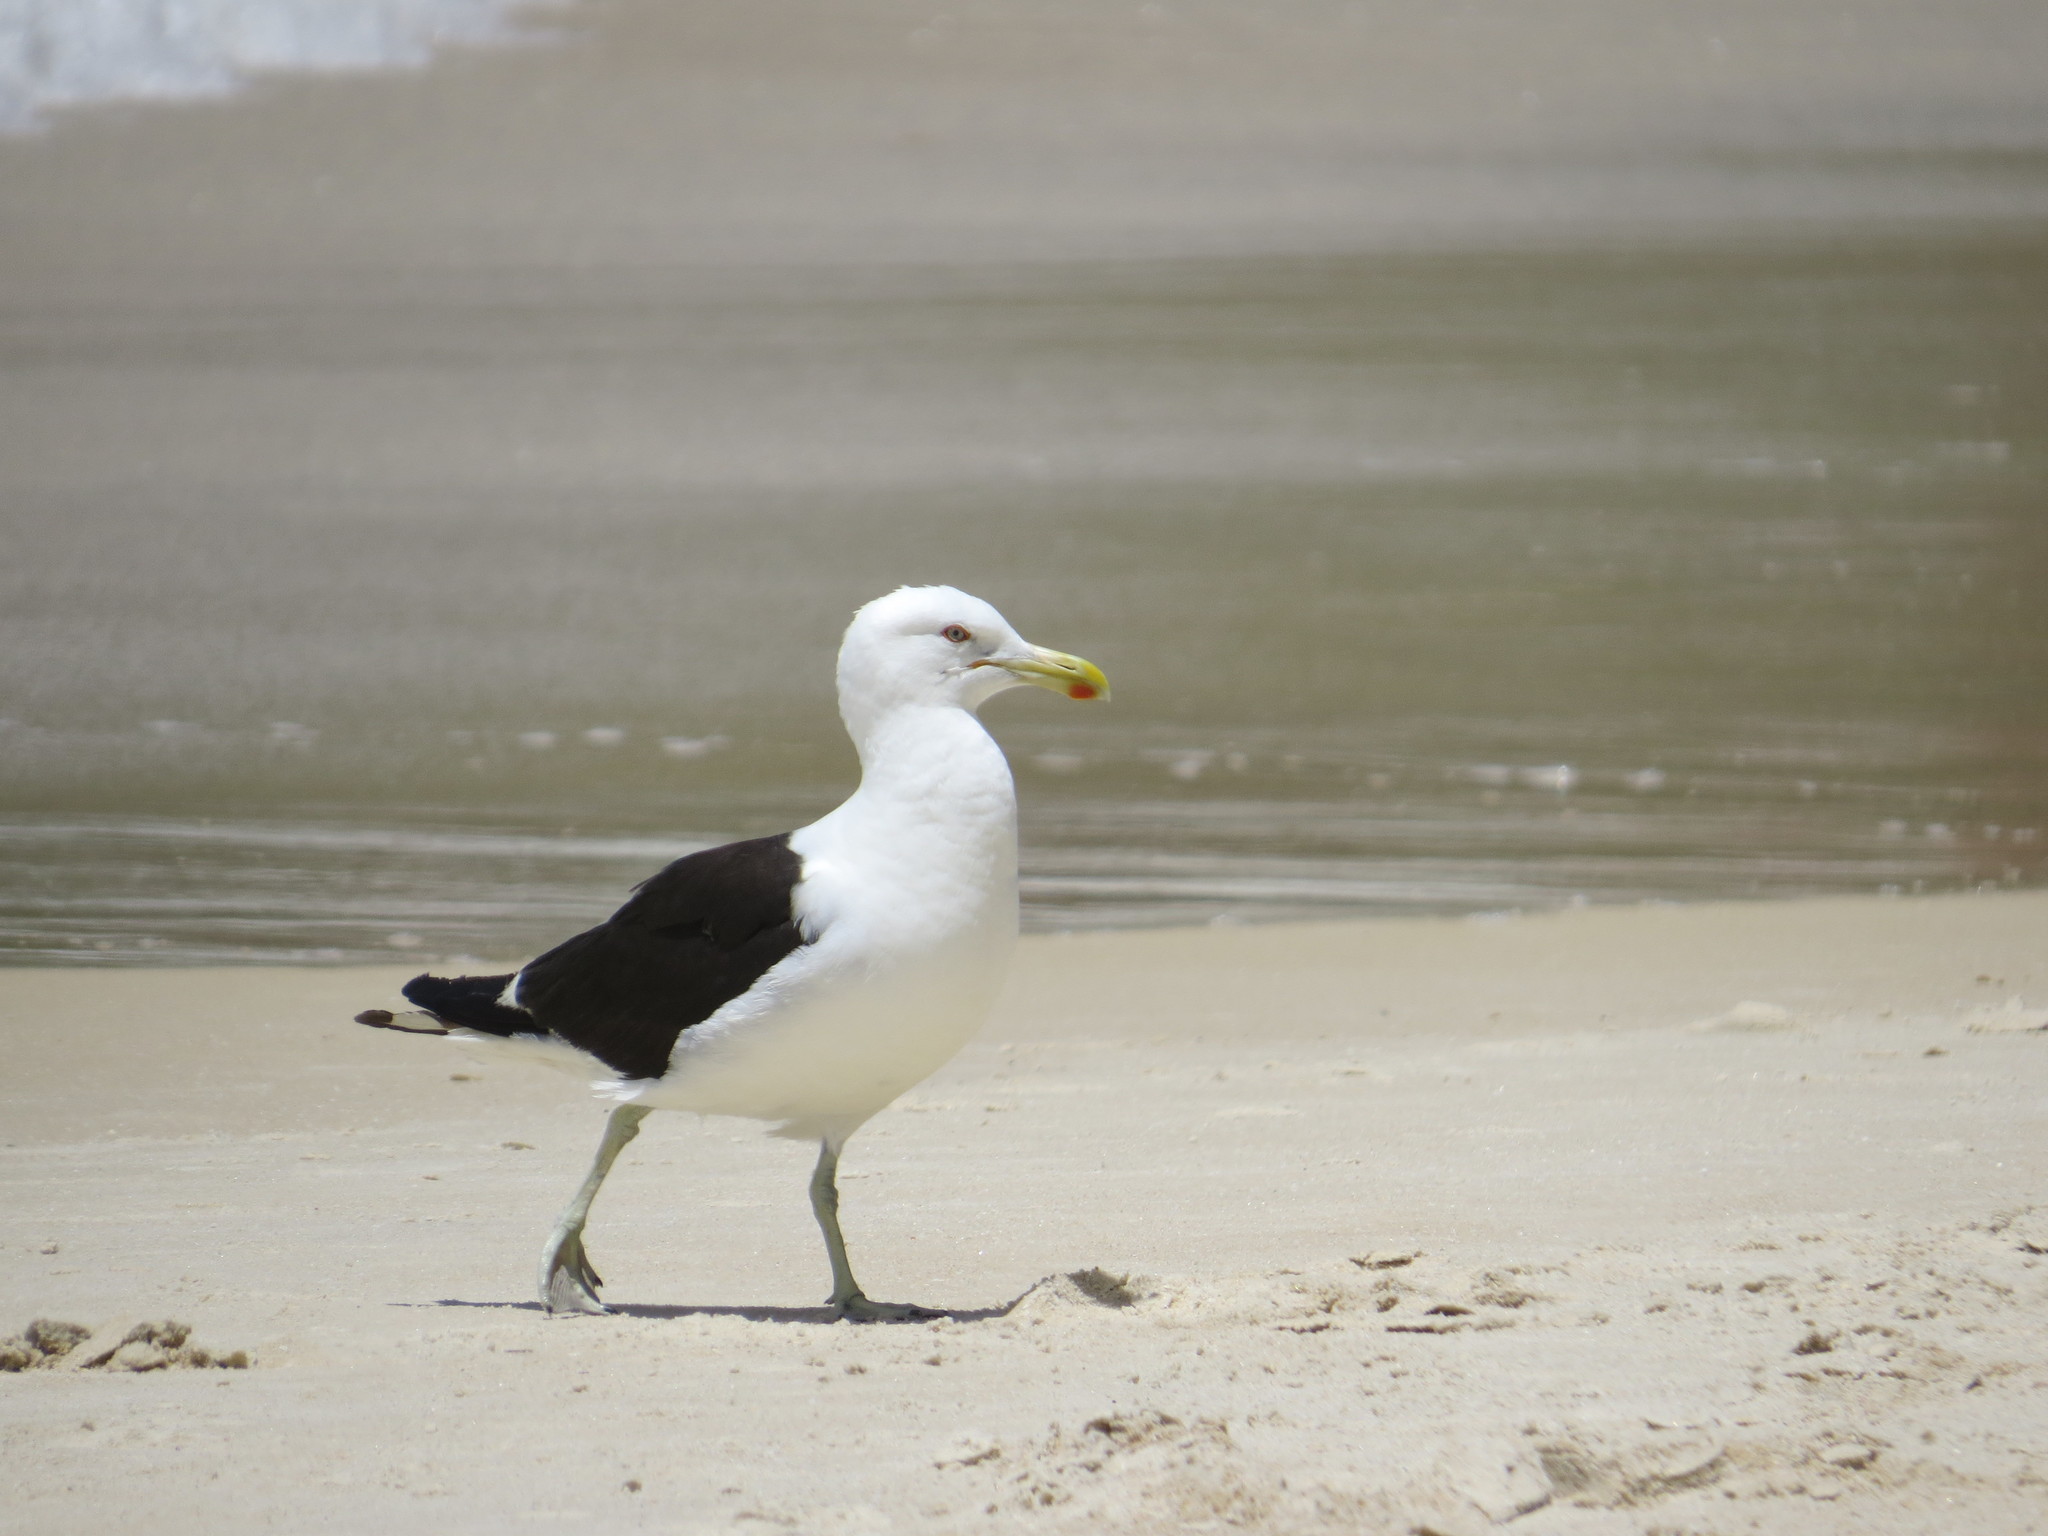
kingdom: Animalia
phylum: Chordata
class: Aves
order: Charadriiformes
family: Laridae
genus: Larus
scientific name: Larus dominicanus
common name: Kelp gull
